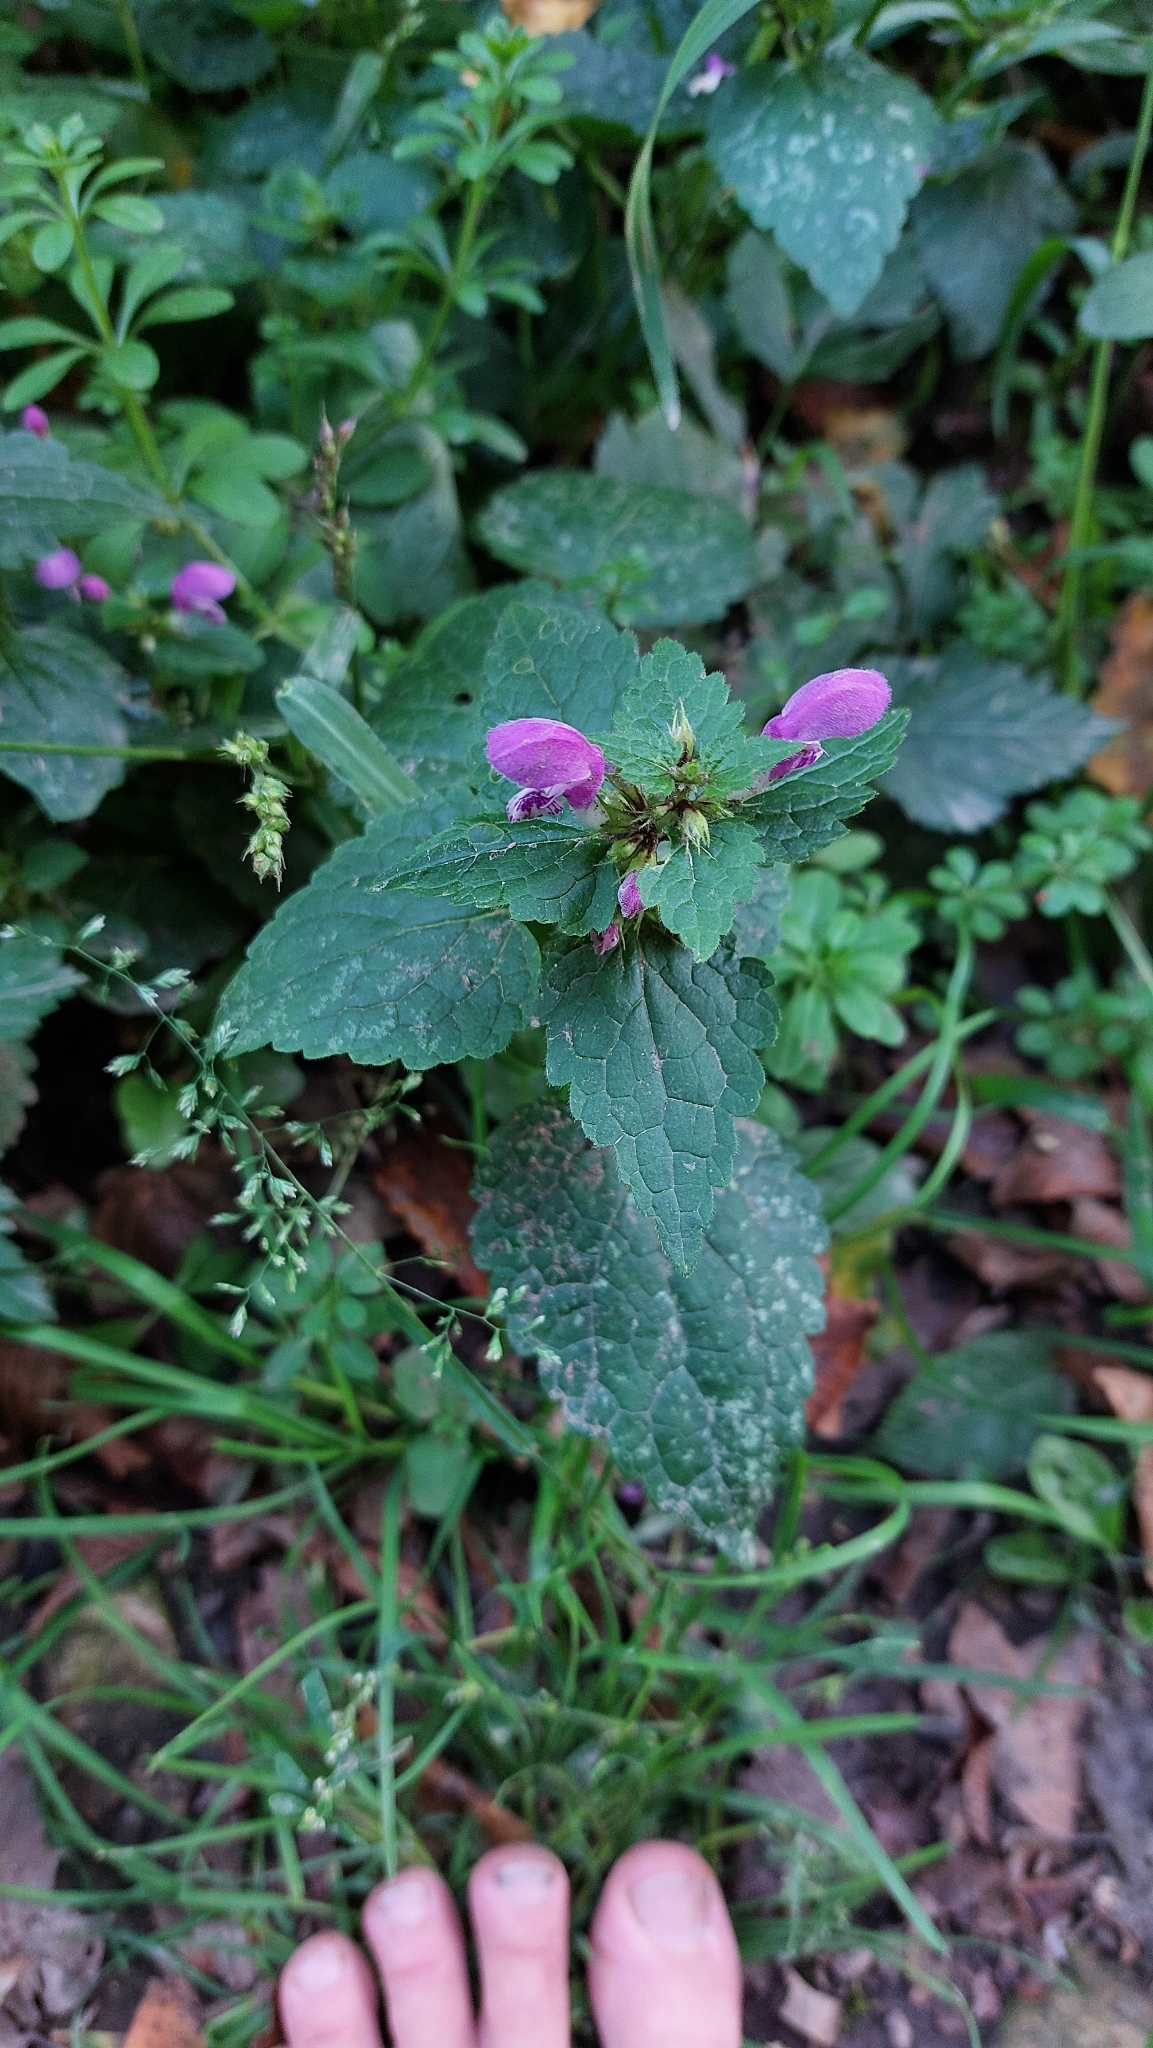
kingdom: Plantae
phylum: Tracheophyta
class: Magnoliopsida
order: Lamiales
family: Lamiaceae
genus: Lamium
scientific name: Lamium maculatum
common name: Spotted dead-nettle
